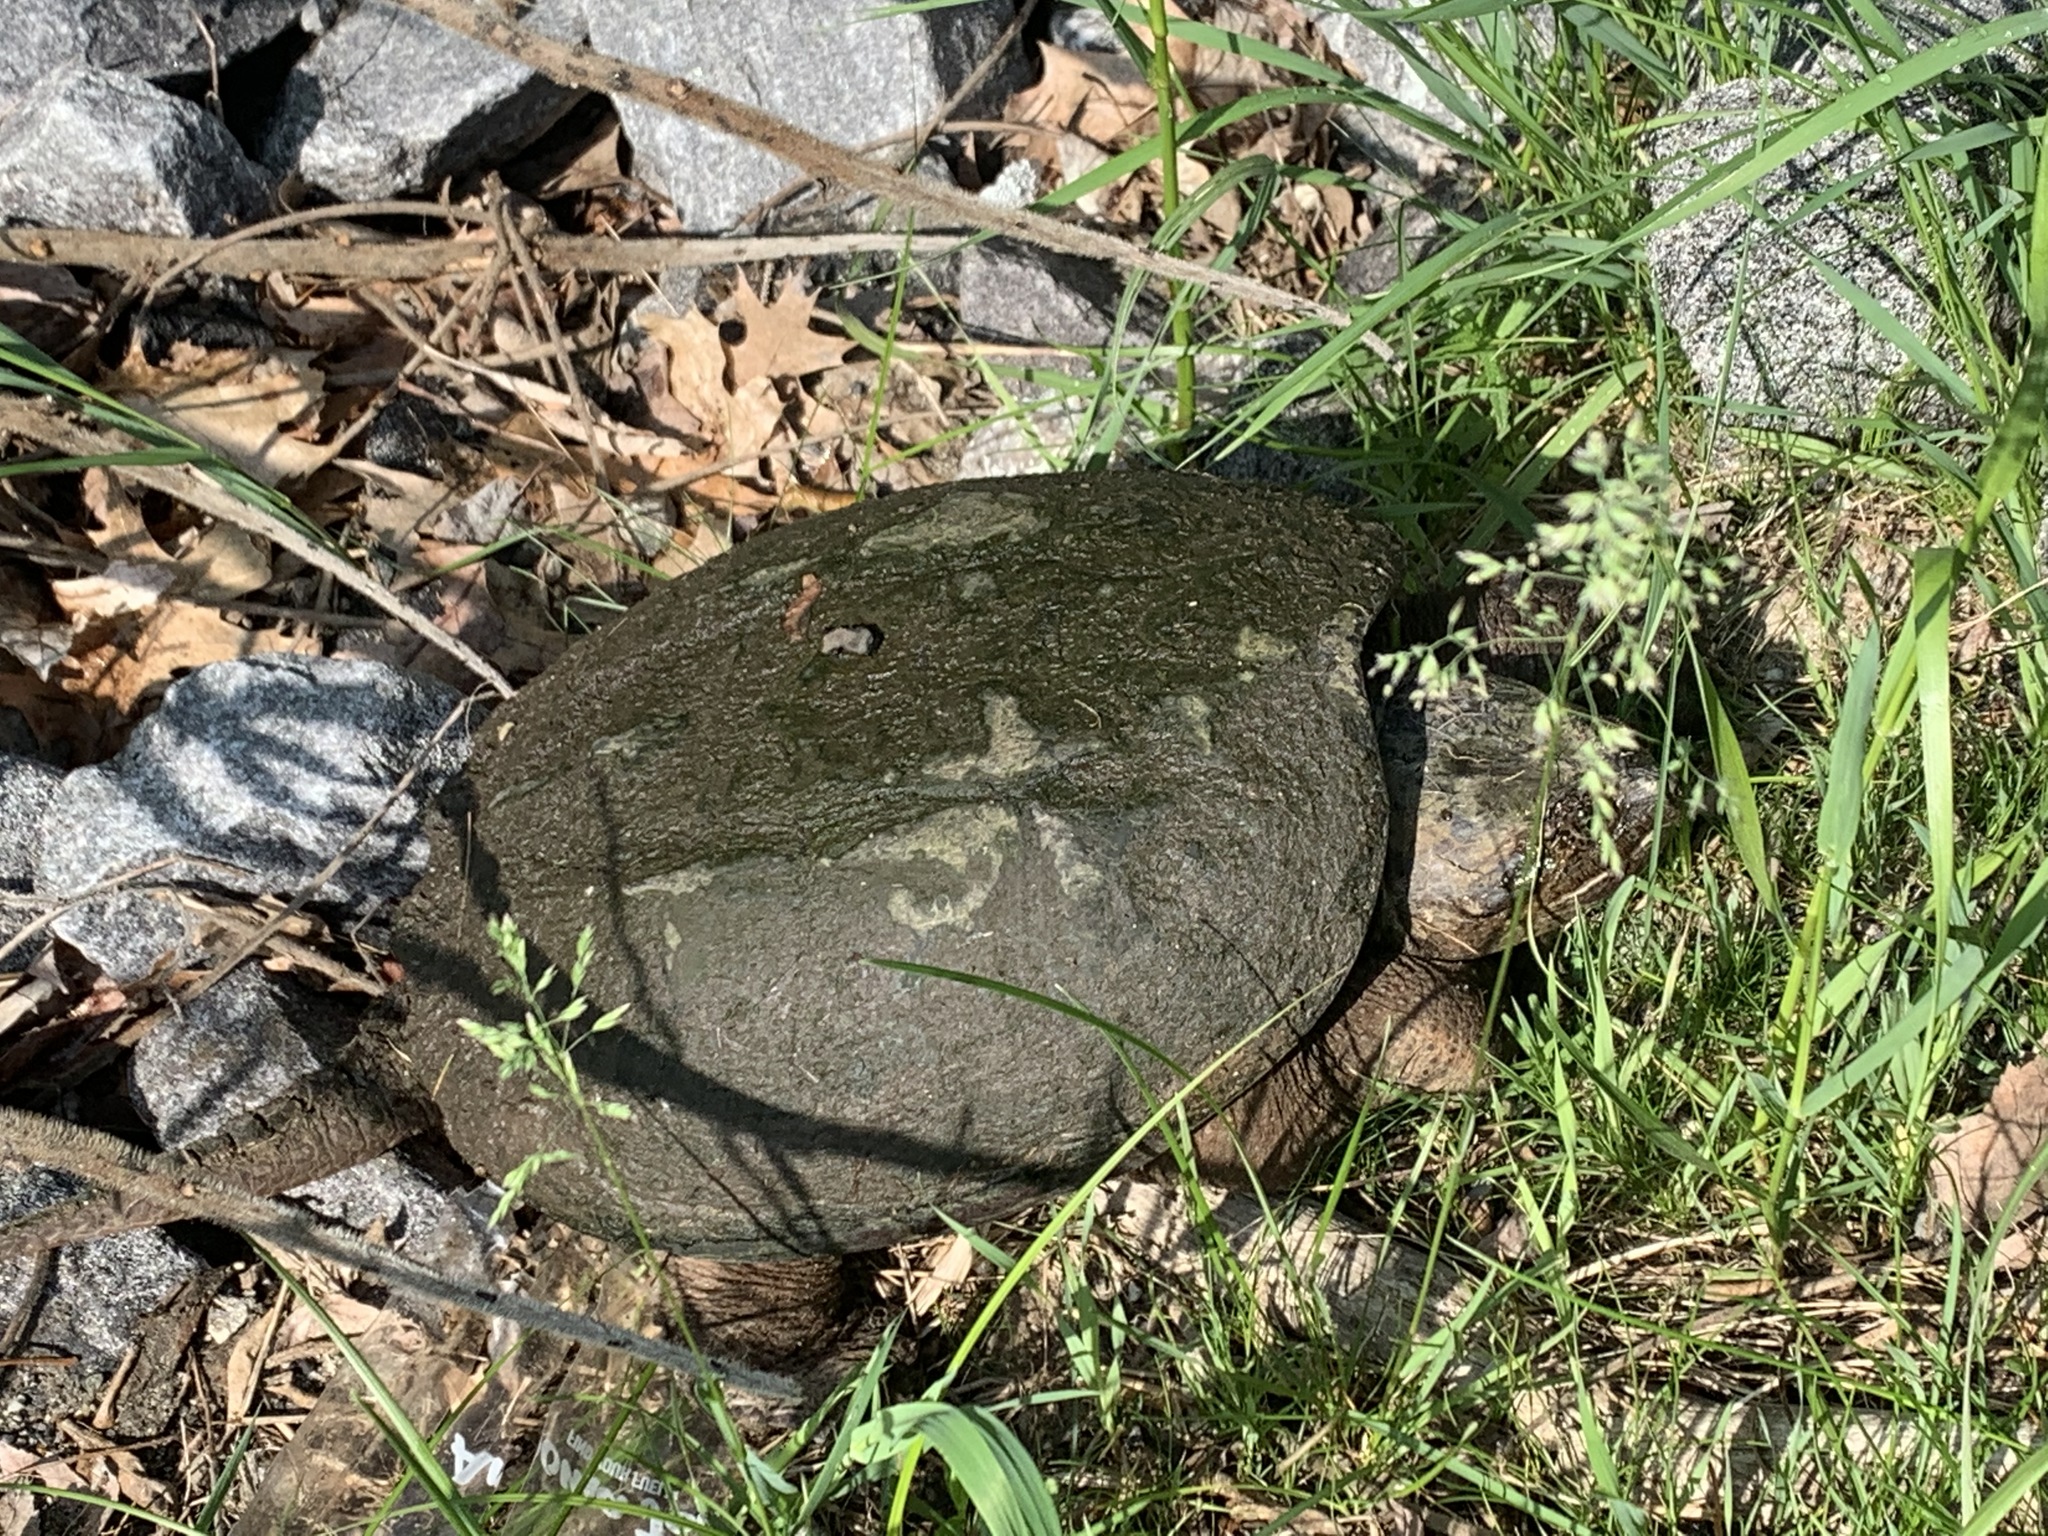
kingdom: Animalia
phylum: Chordata
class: Testudines
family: Chelydridae
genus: Chelydra
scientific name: Chelydra serpentina
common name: Common snapping turtle
